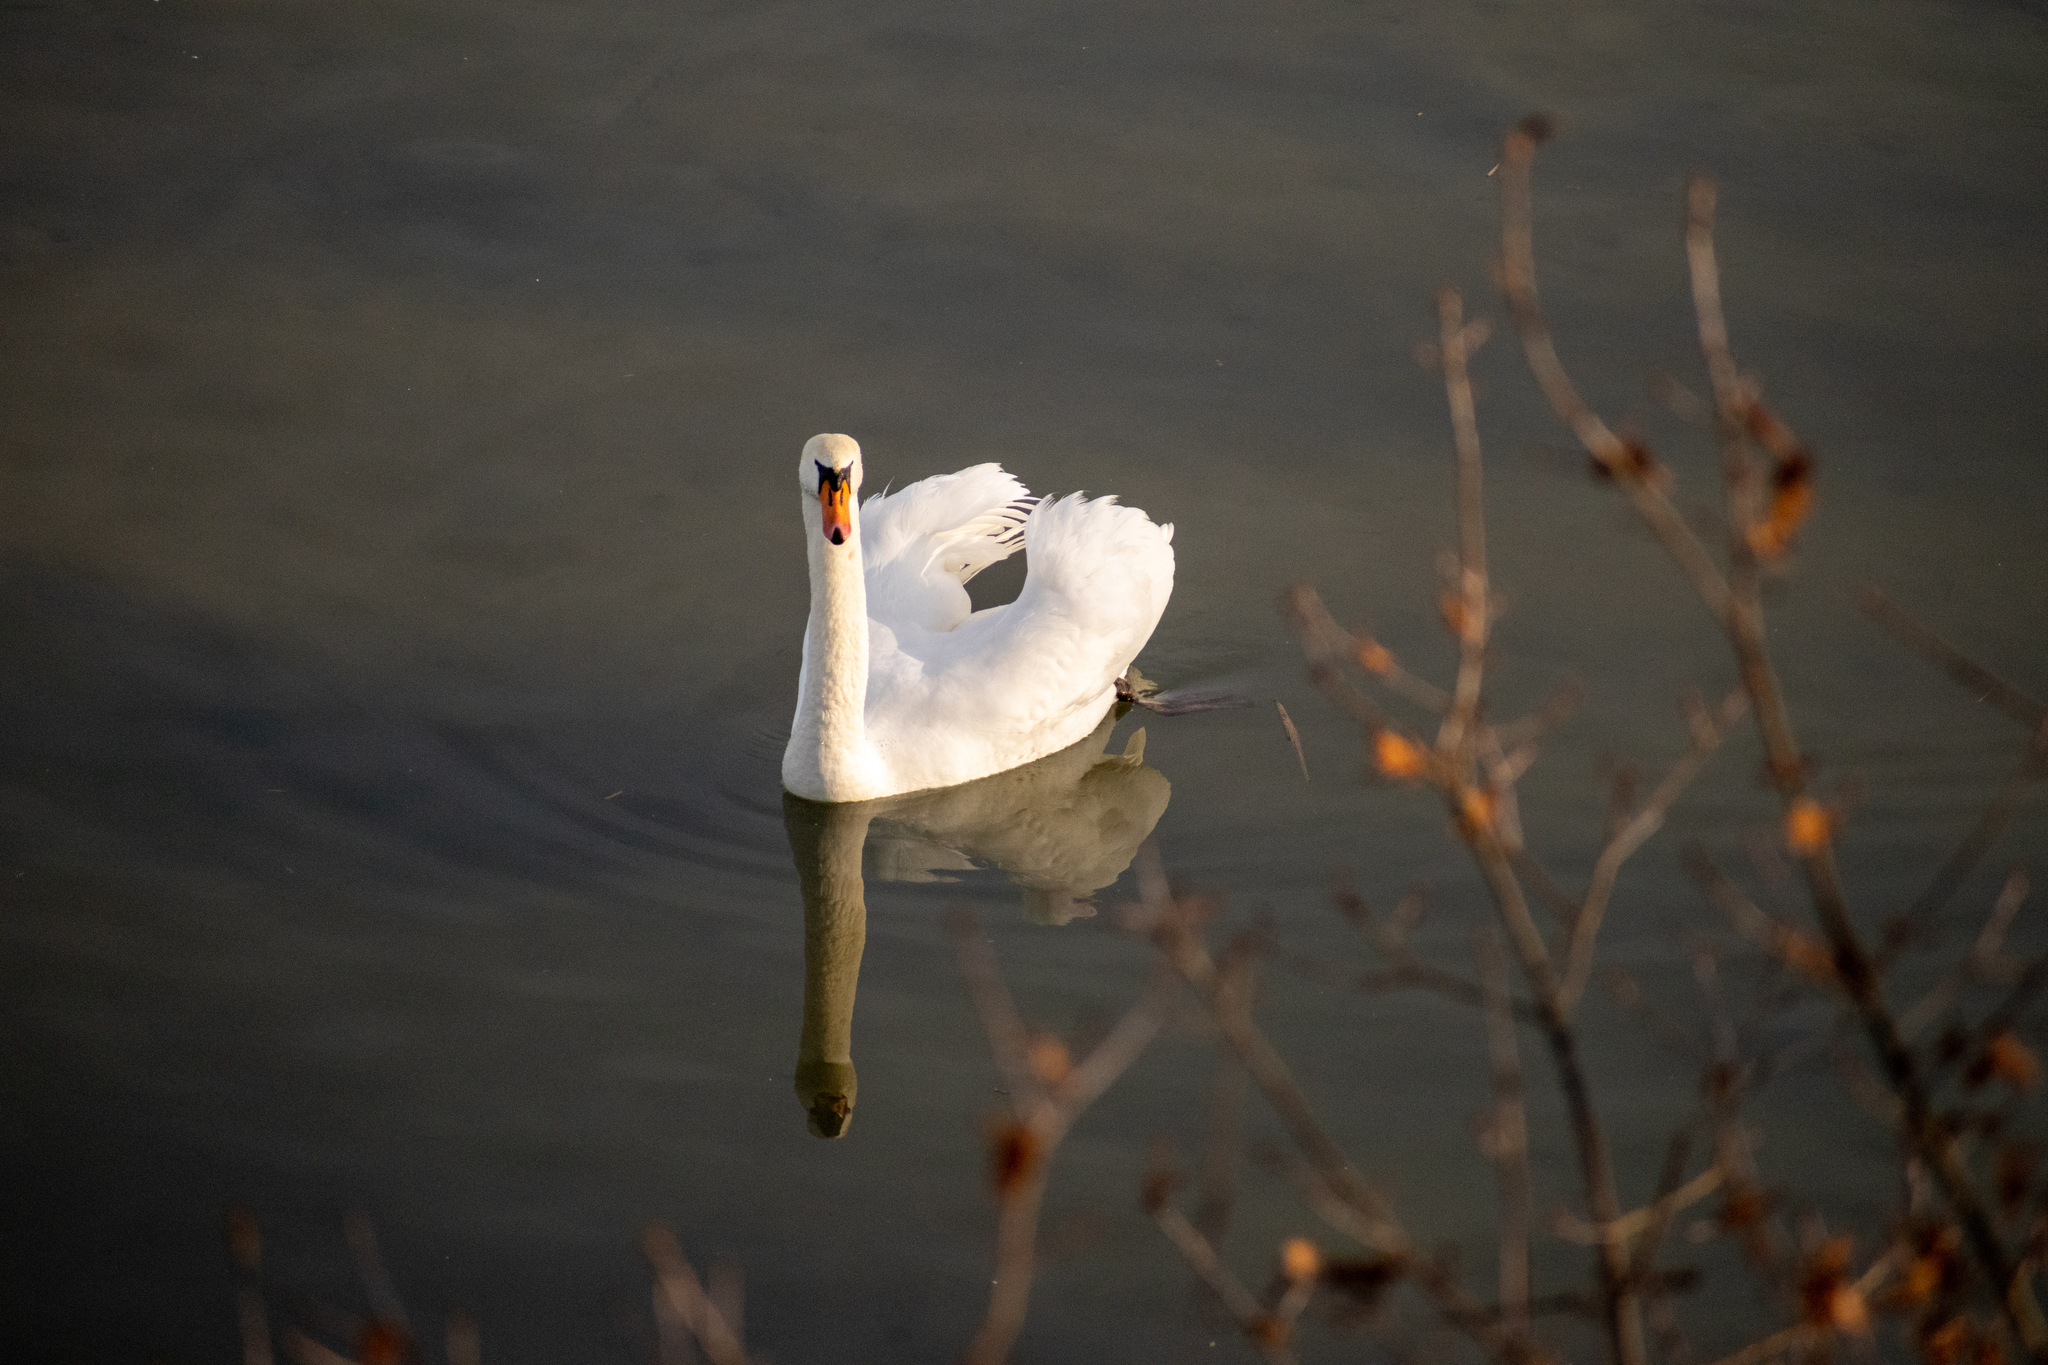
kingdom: Animalia
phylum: Chordata
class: Aves
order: Anseriformes
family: Anatidae
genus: Cygnus
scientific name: Cygnus olor
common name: Mute swan
